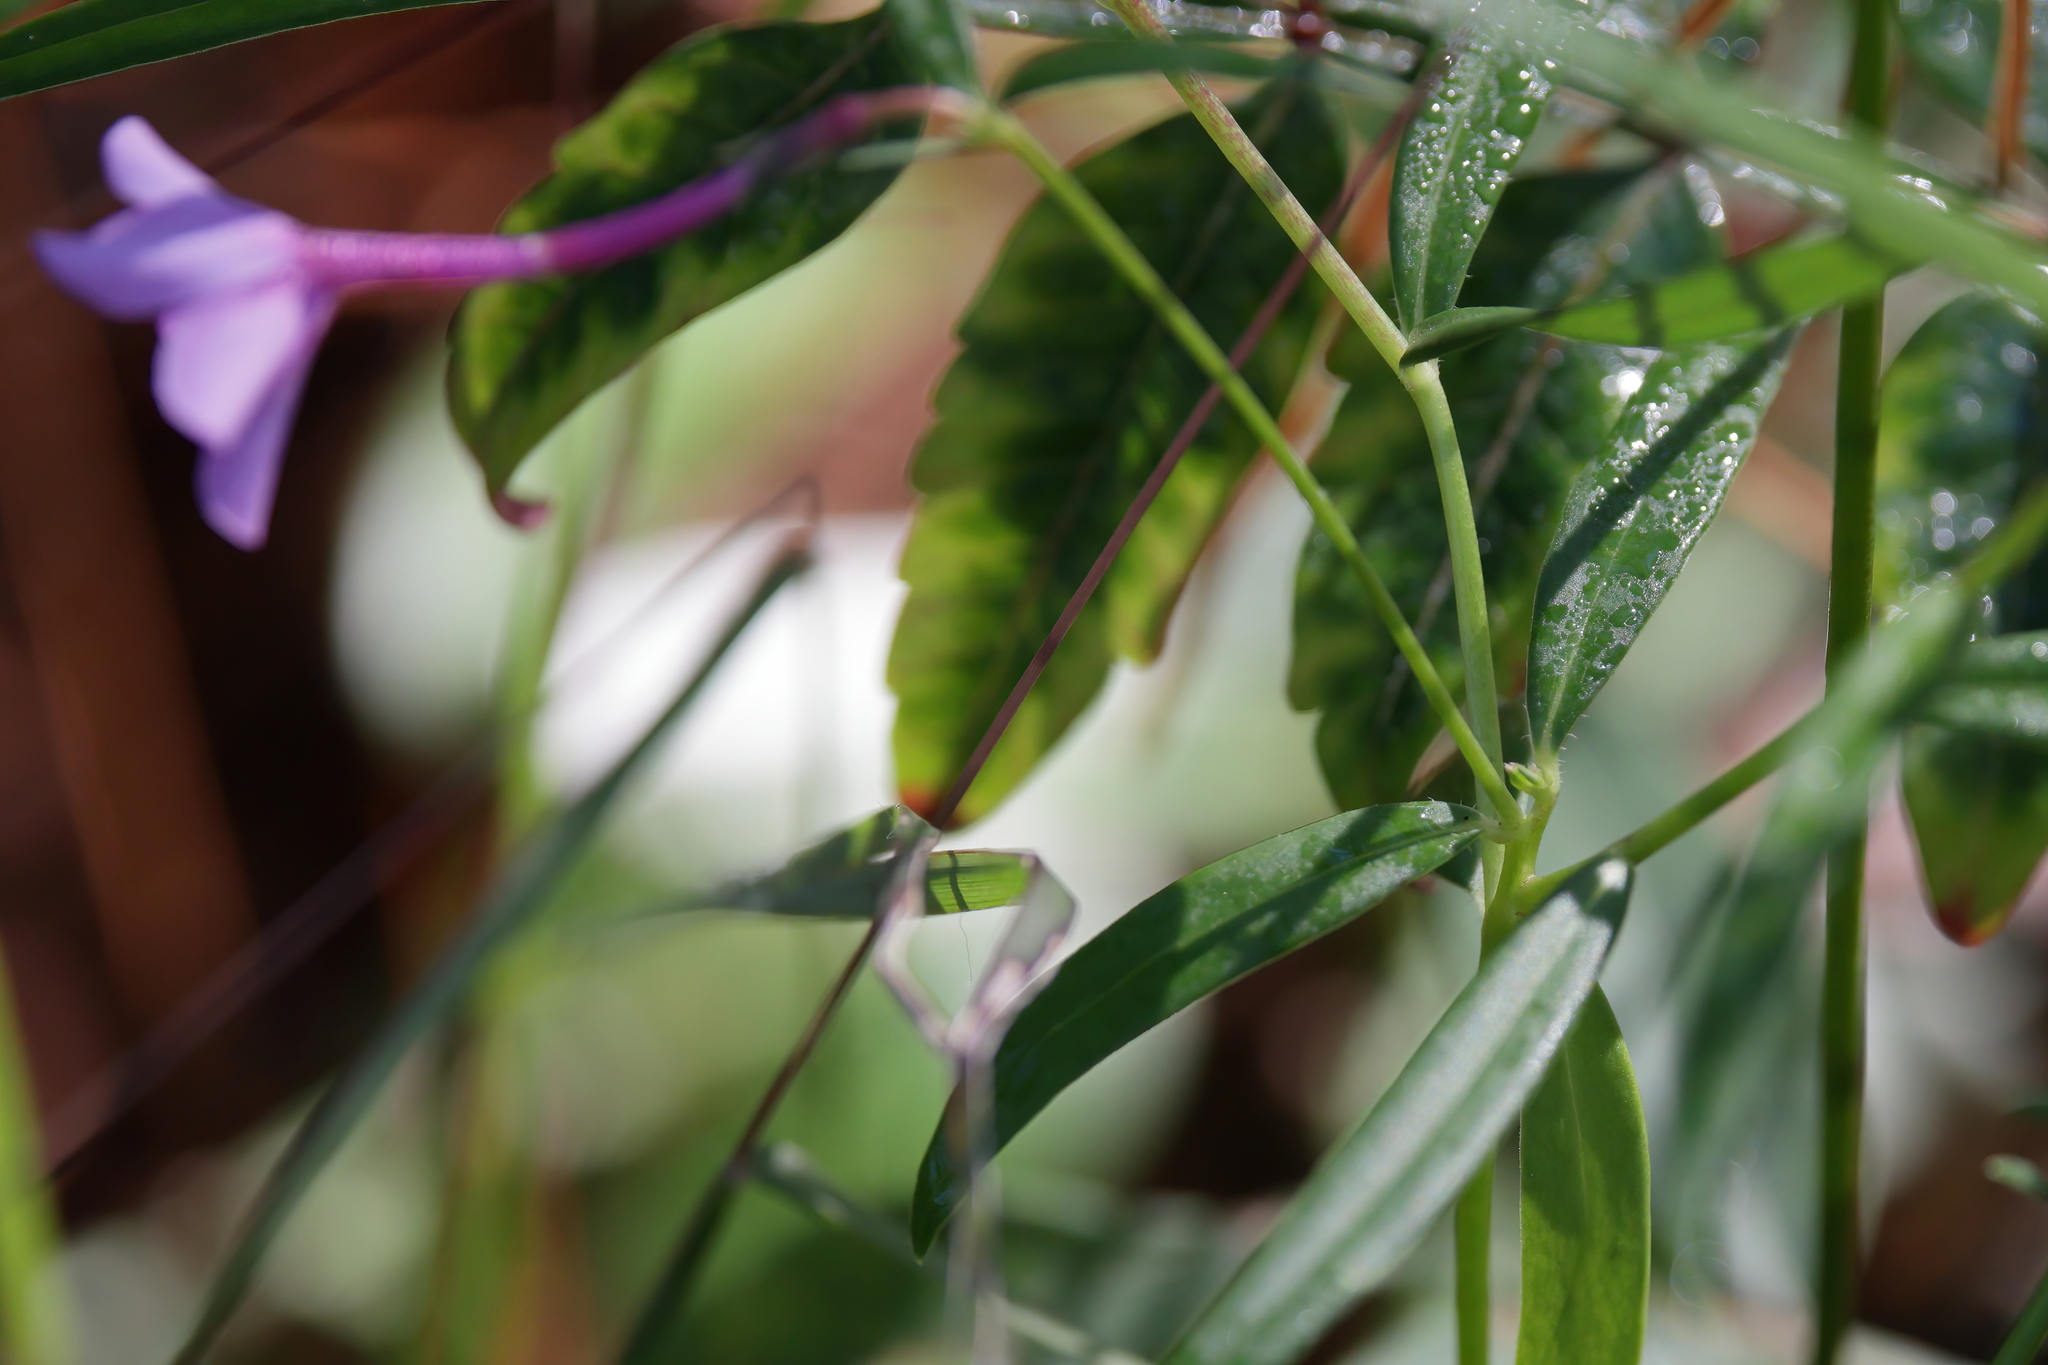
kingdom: Plantae
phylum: Tracheophyta
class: Magnoliopsida
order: Ericales
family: Polemoniaceae
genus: Phlox
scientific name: Phlox carolina
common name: Thick-leaf phlox
